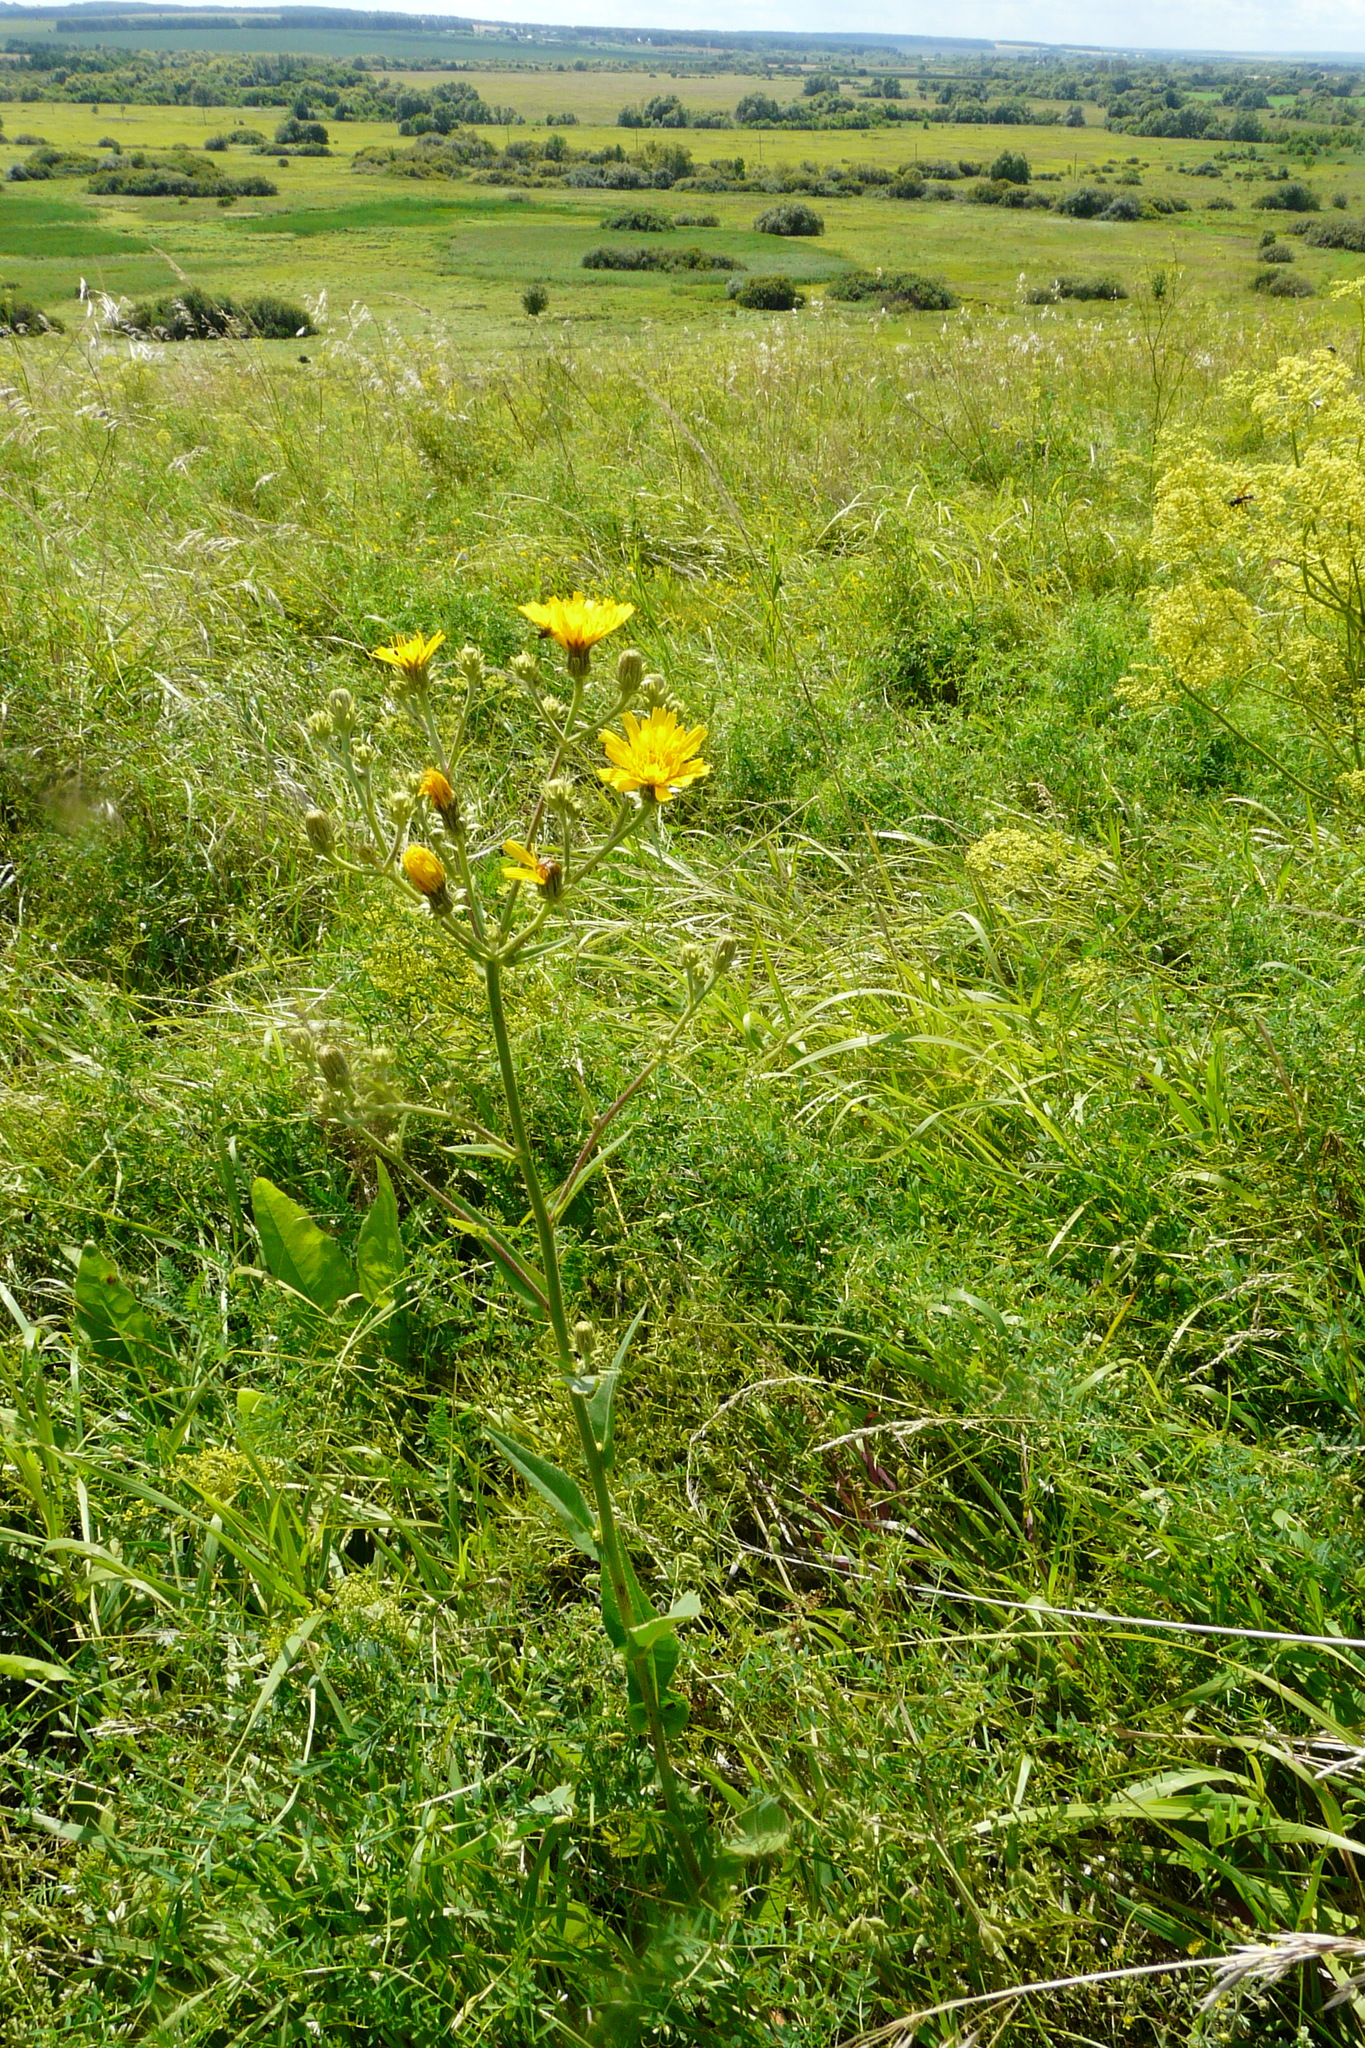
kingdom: Plantae
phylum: Tracheophyta
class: Magnoliopsida
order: Asterales
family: Asteraceae
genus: Picris
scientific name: Picris hieracioides
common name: Hawkweed oxtongue
